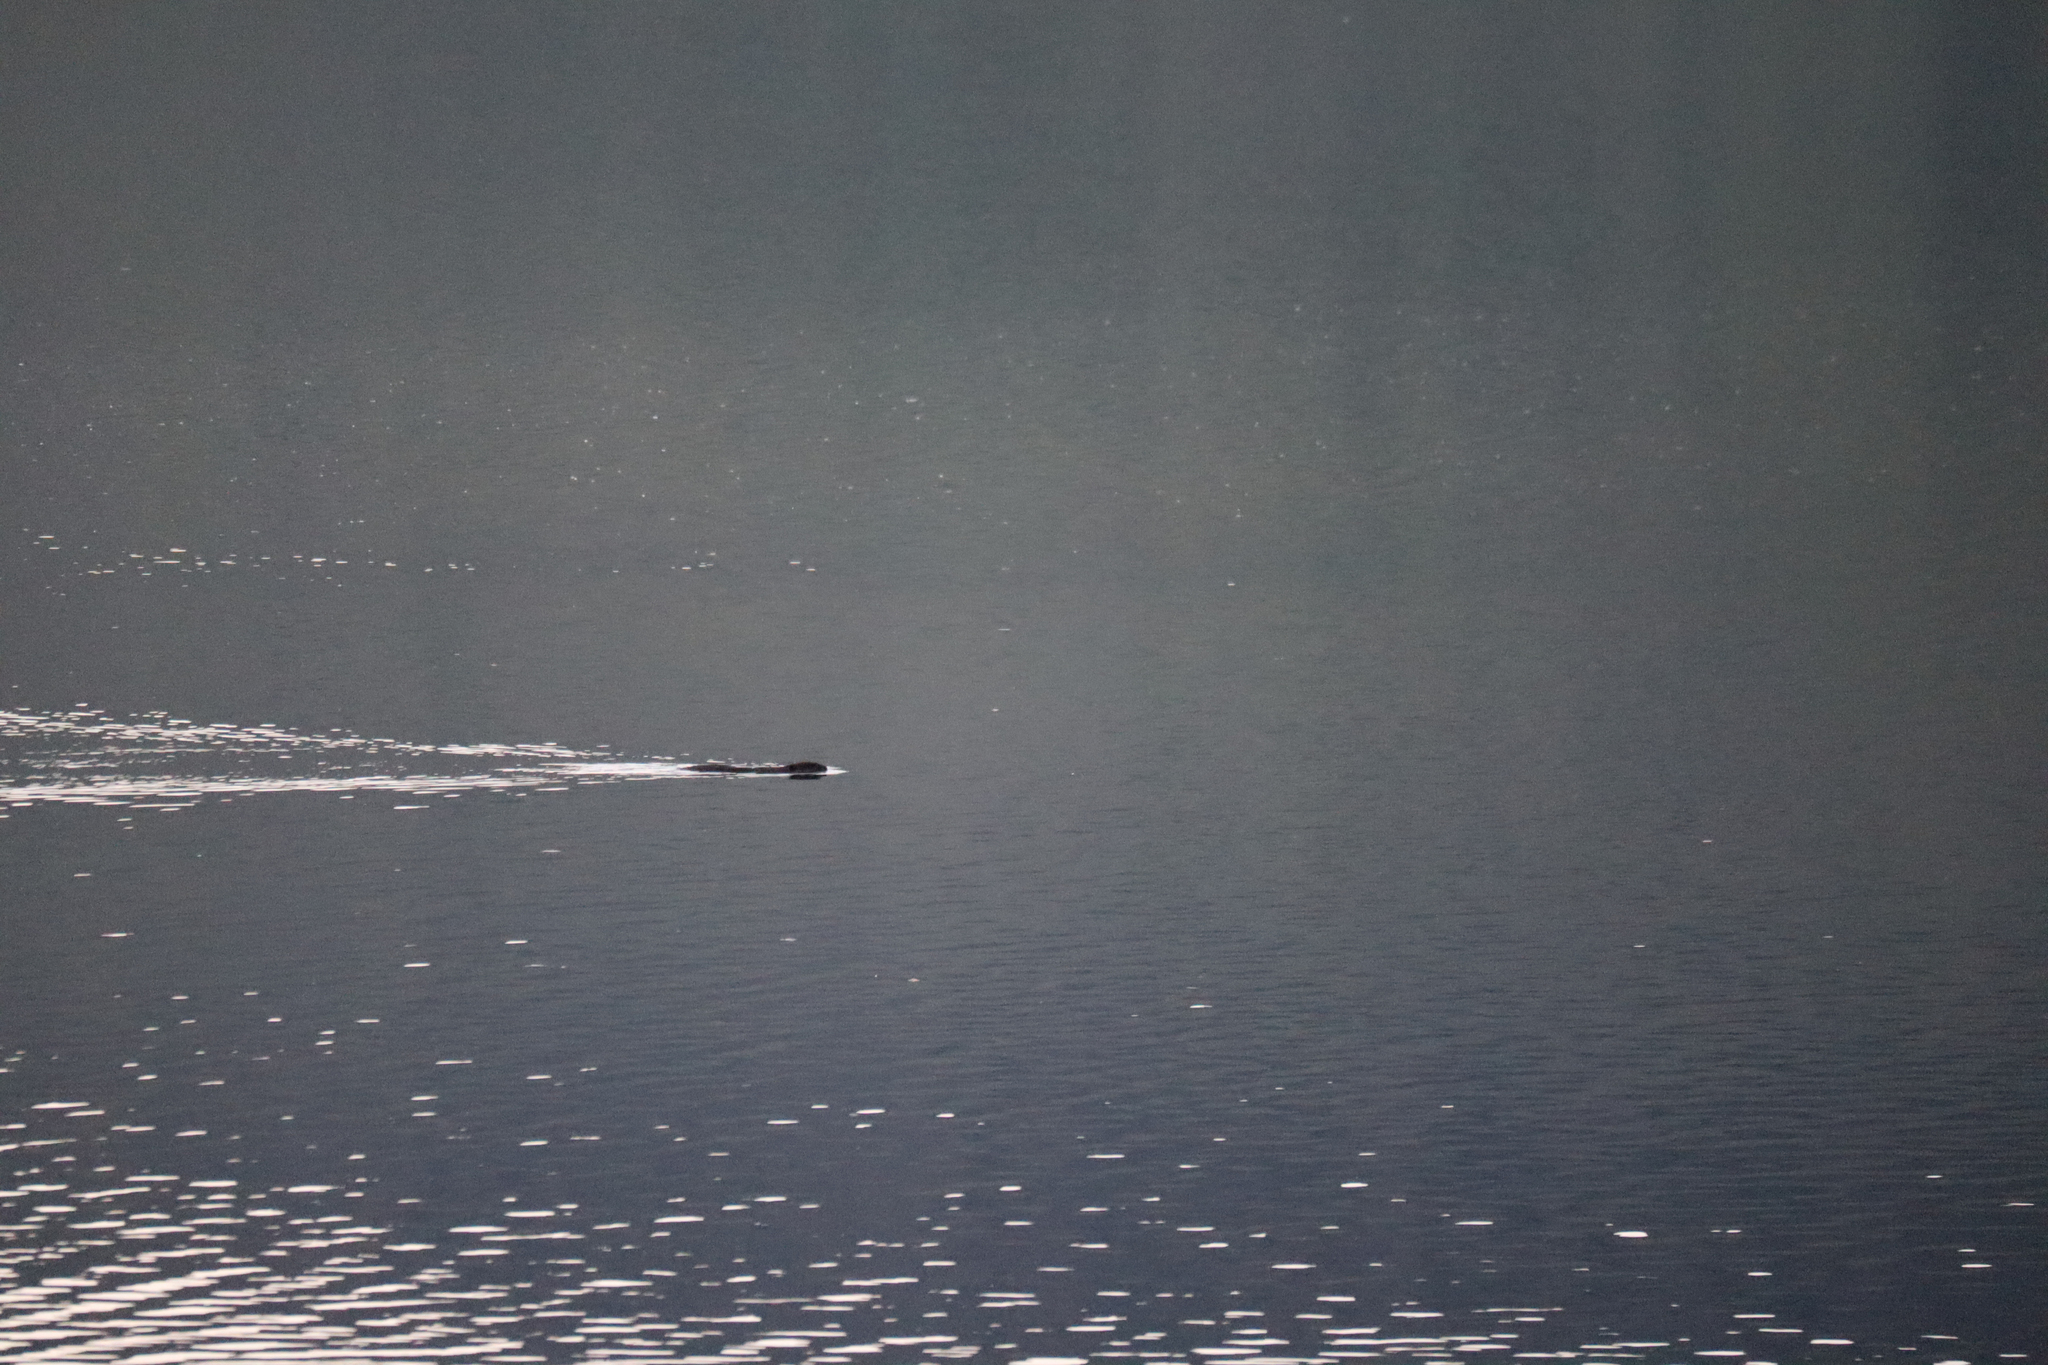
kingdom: Animalia
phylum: Chordata
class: Mammalia
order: Rodentia
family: Cricetidae
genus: Ondatra
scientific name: Ondatra zibethicus
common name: Muskrat
